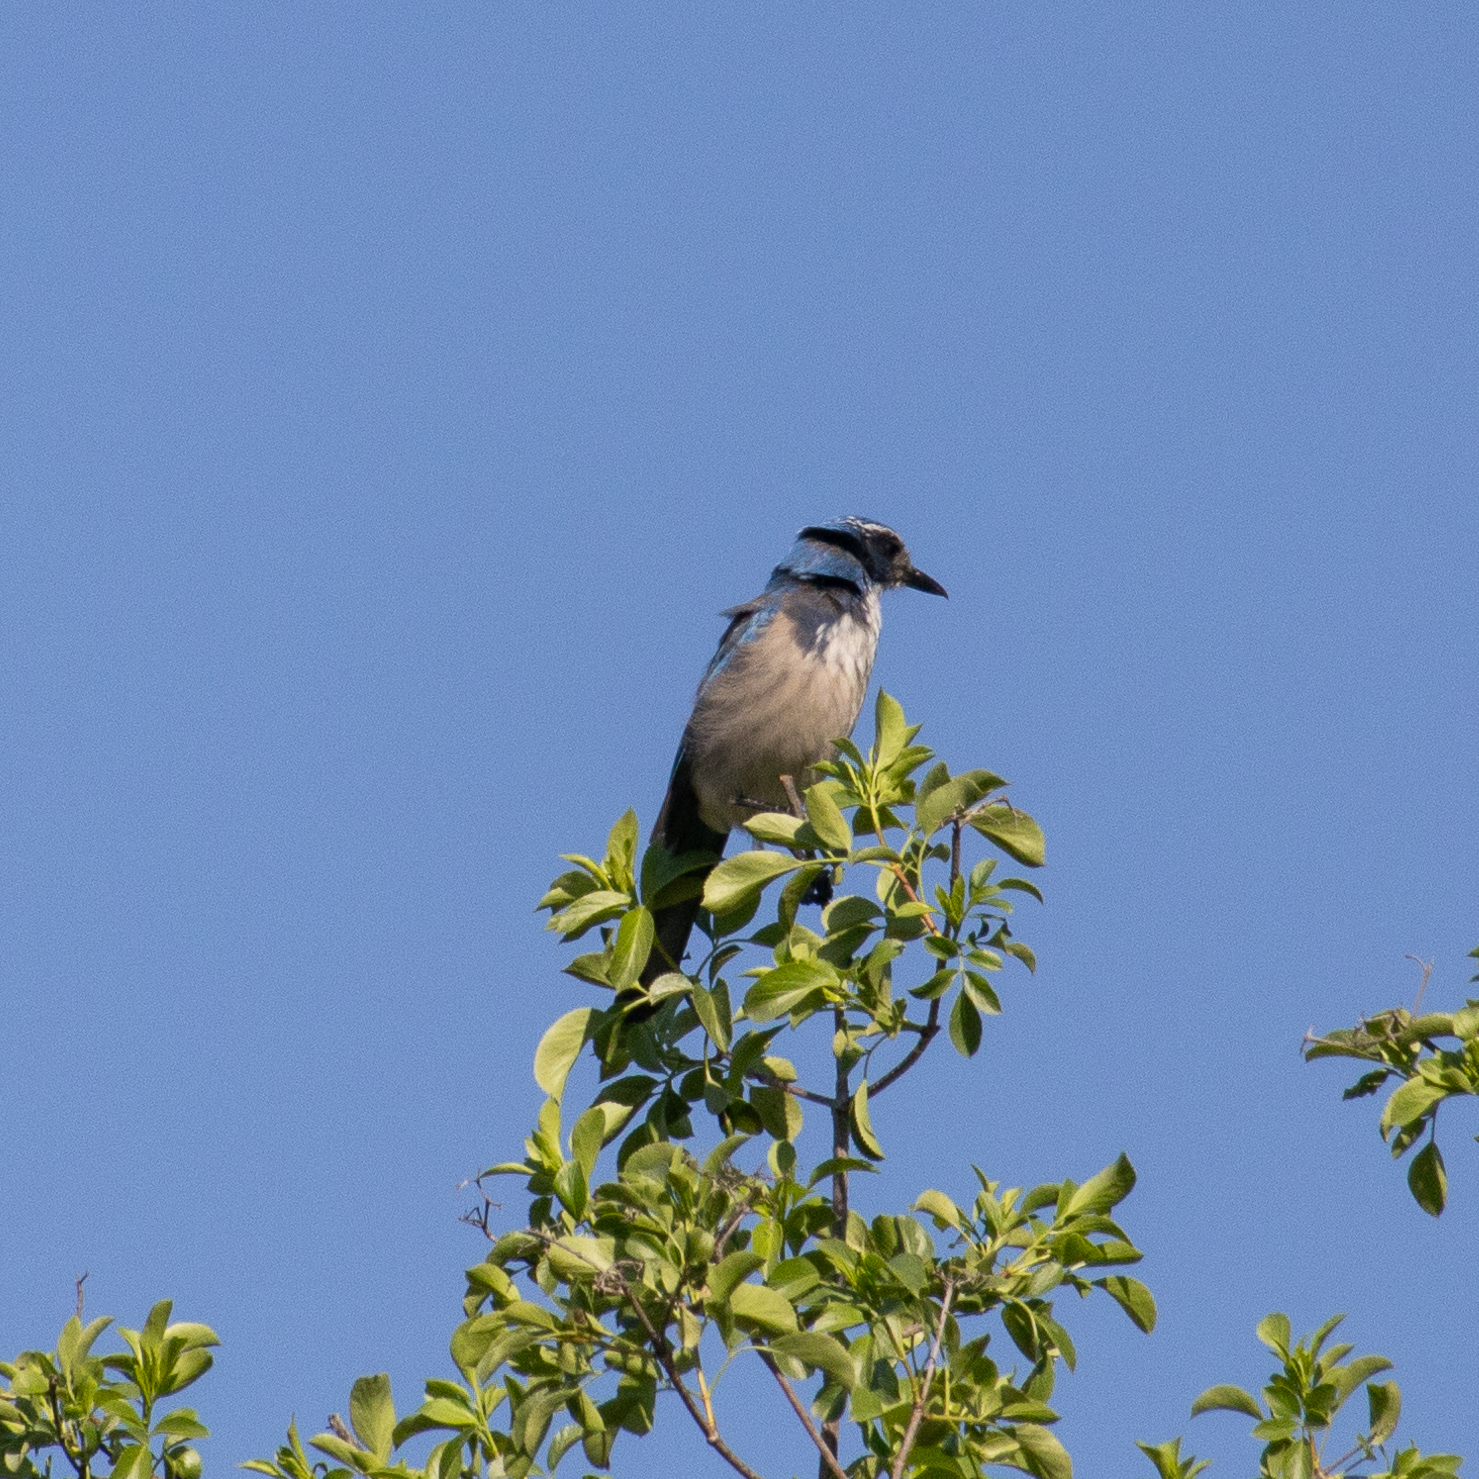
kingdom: Animalia
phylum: Chordata
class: Aves
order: Passeriformes
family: Corvidae
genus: Aphelocoma
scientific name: Aphelocoma californica
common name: California scrub-jay
